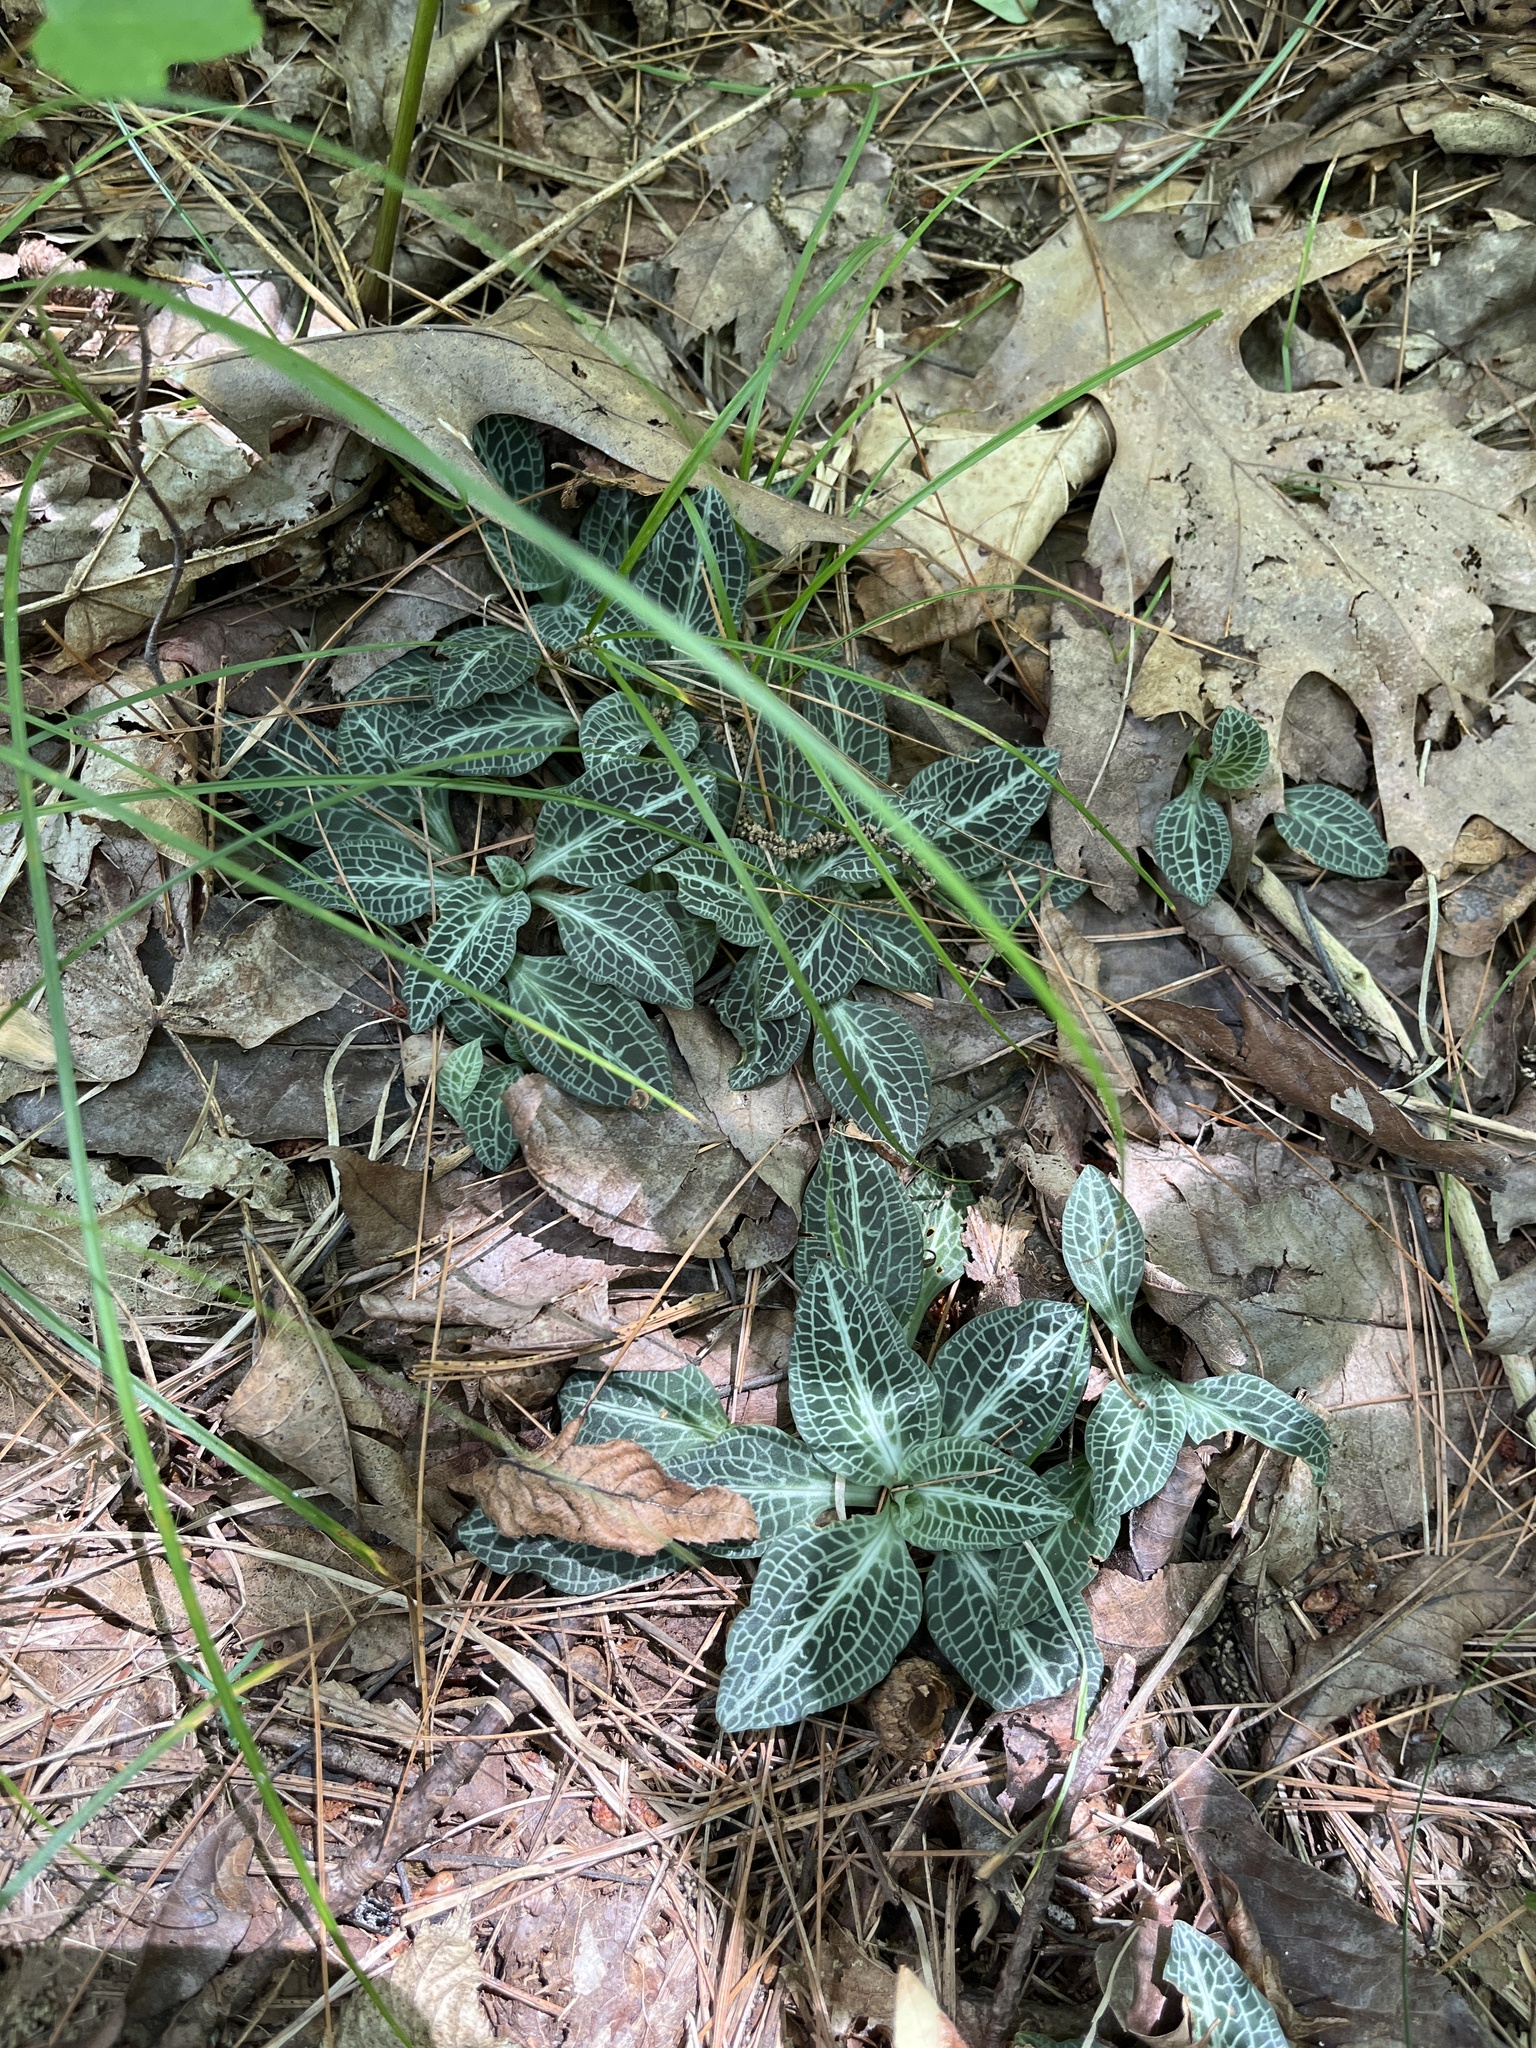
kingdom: Plantae
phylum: Tracheophyta
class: Liliopsida
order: Asparagales
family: Orchidaceae
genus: Goodyera
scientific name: Goodyera pubescens
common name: Downy rattlesnake-plantain
